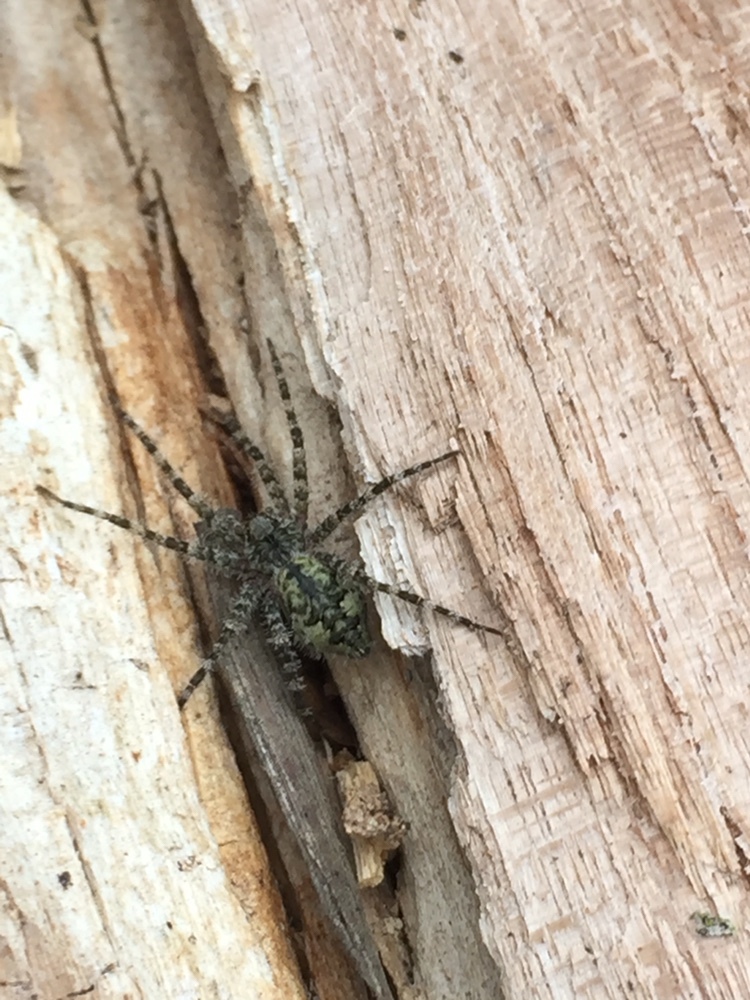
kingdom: Animalia
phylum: Arthropoda
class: Arachnida
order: Araneae
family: Pisauridae
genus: Dolomedes
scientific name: Dolomedes albineus
